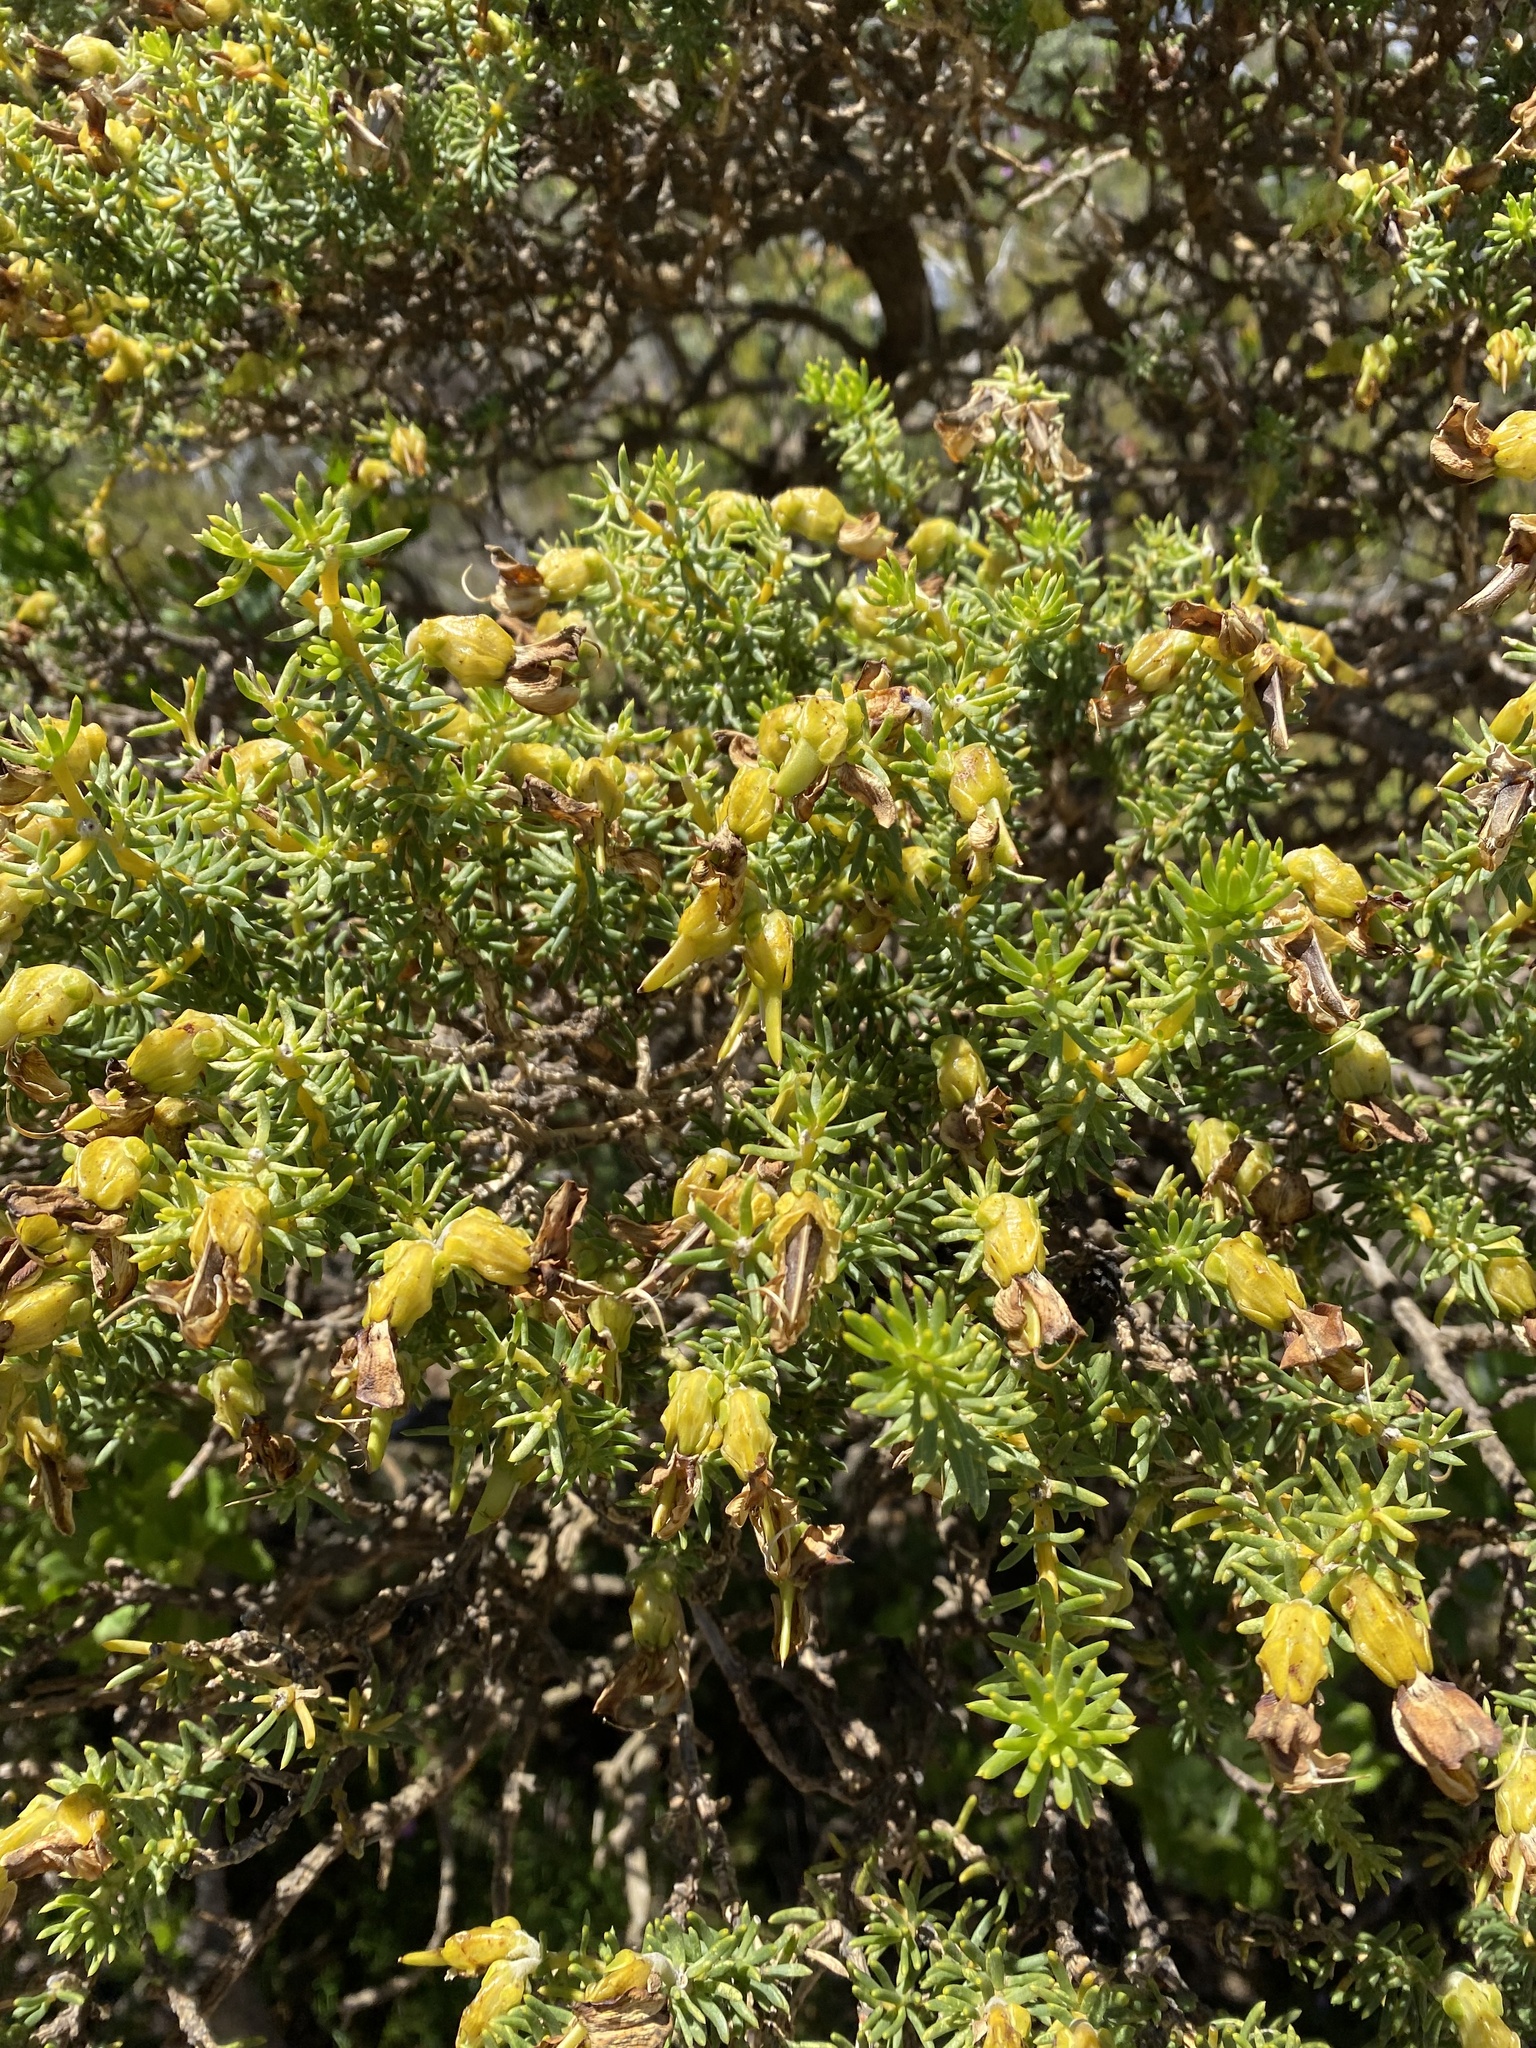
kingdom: Plantae
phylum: Tracheophyta
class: Magnoliopsida
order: Fabales
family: Fabaceae
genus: Aspalathus
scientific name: Aspalathus capensis
